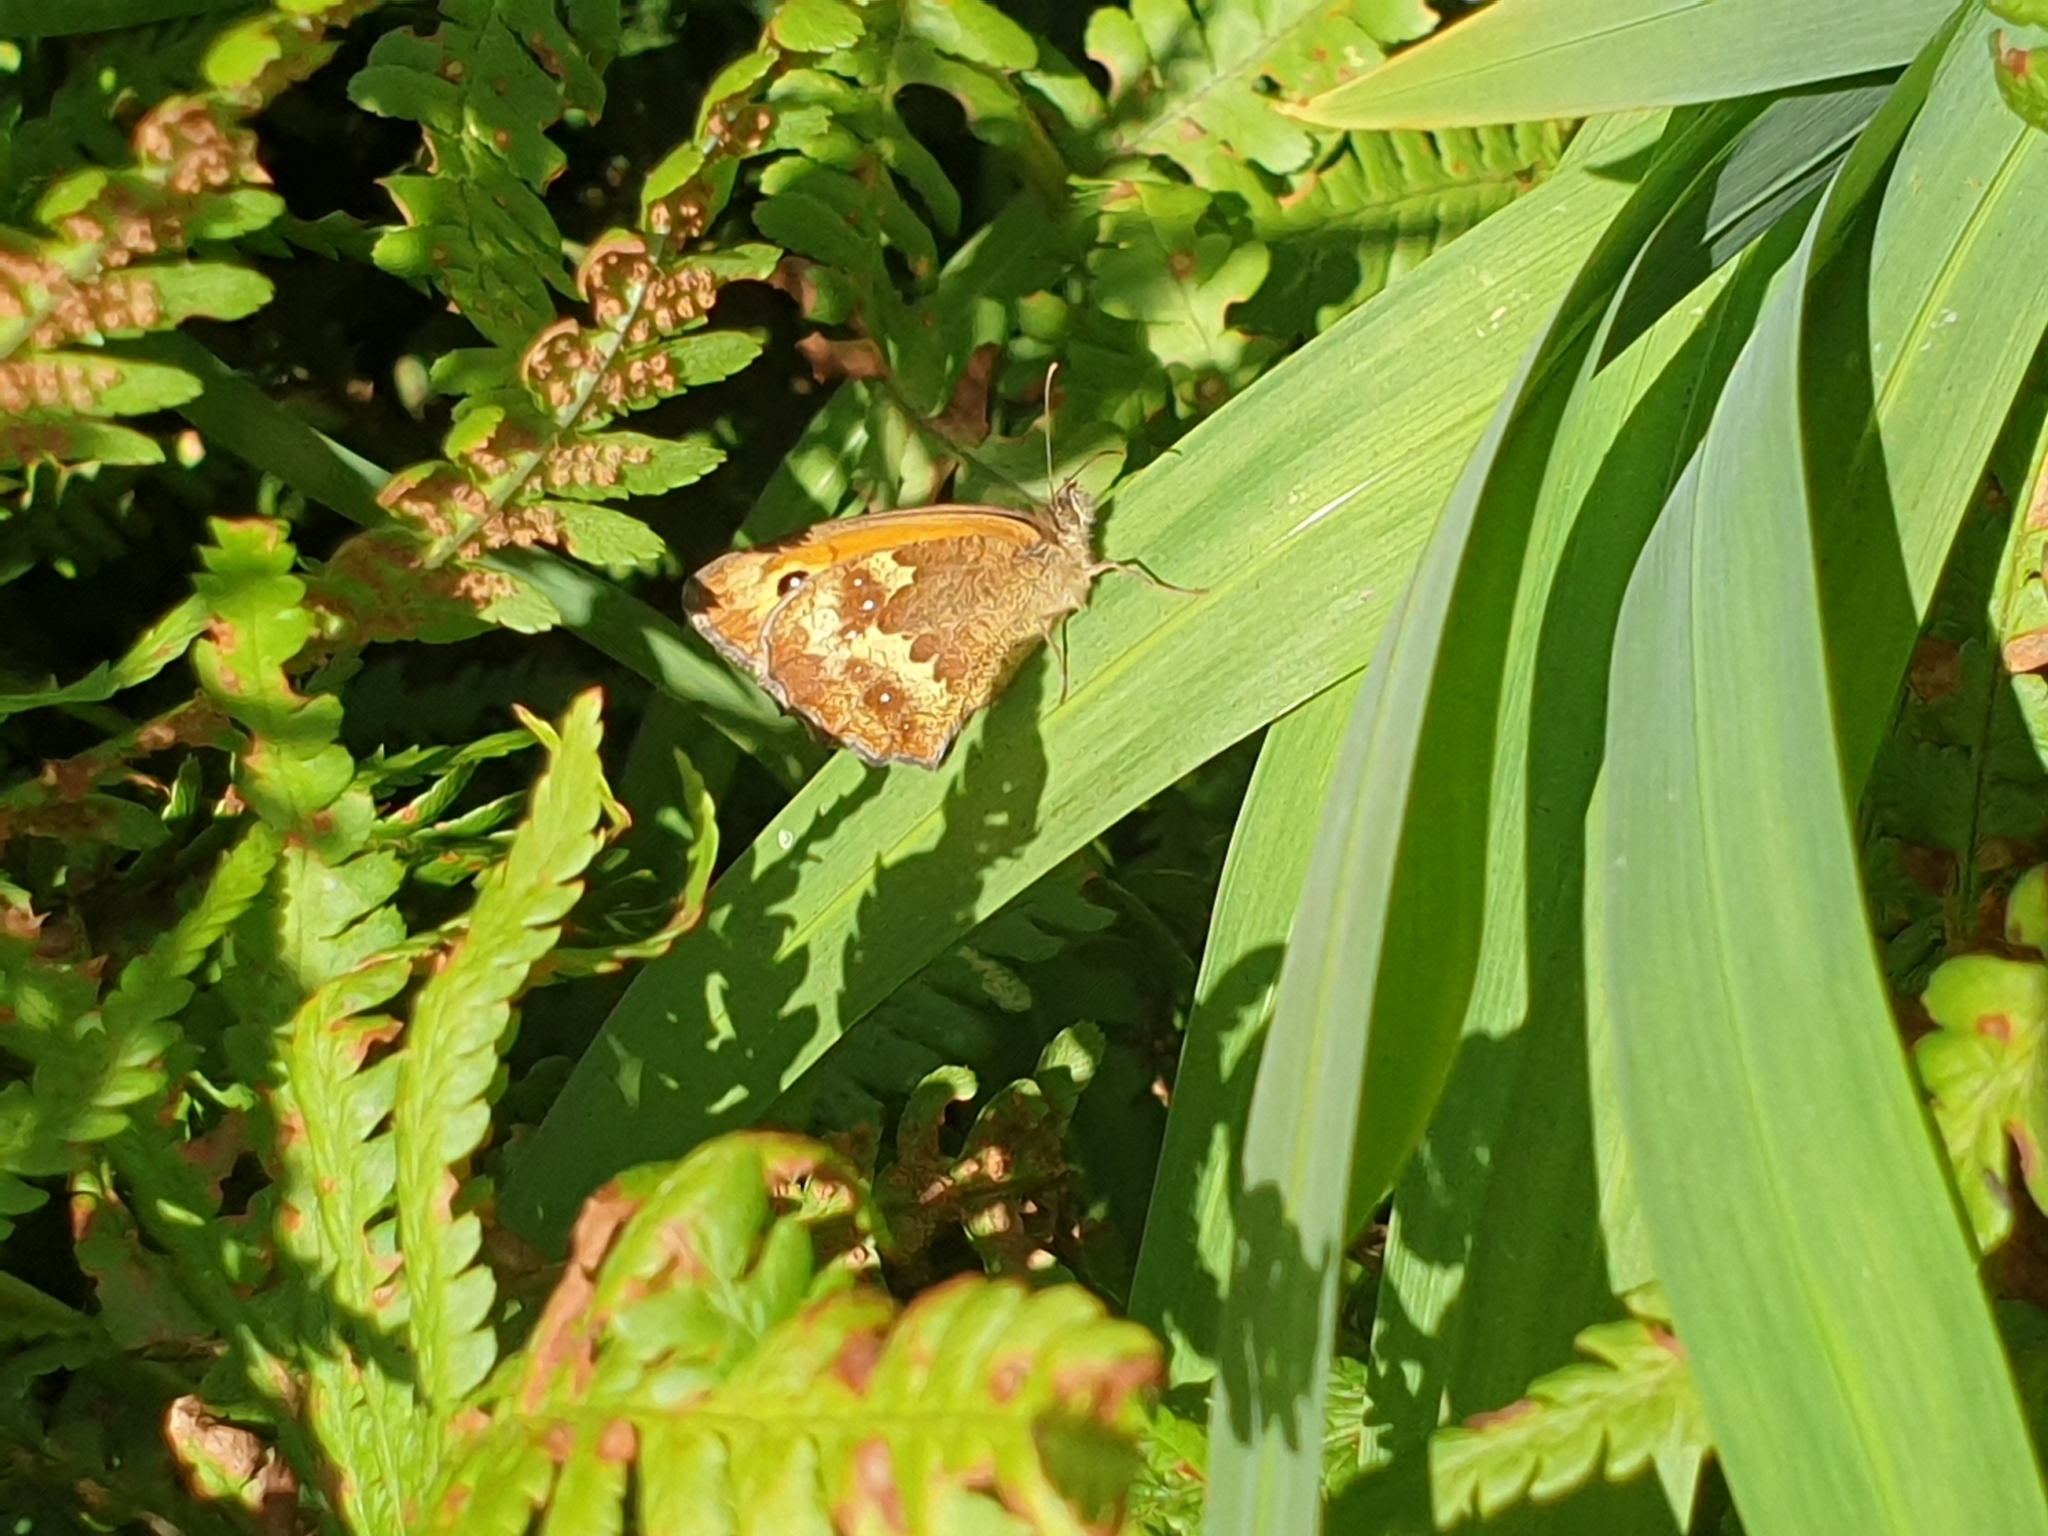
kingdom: Animalia
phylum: Arthropoda
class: Insecta
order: Lepidoptera
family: Nymphalidae
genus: Pyronia
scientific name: Pyronia tithonus
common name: Gatekeeper
